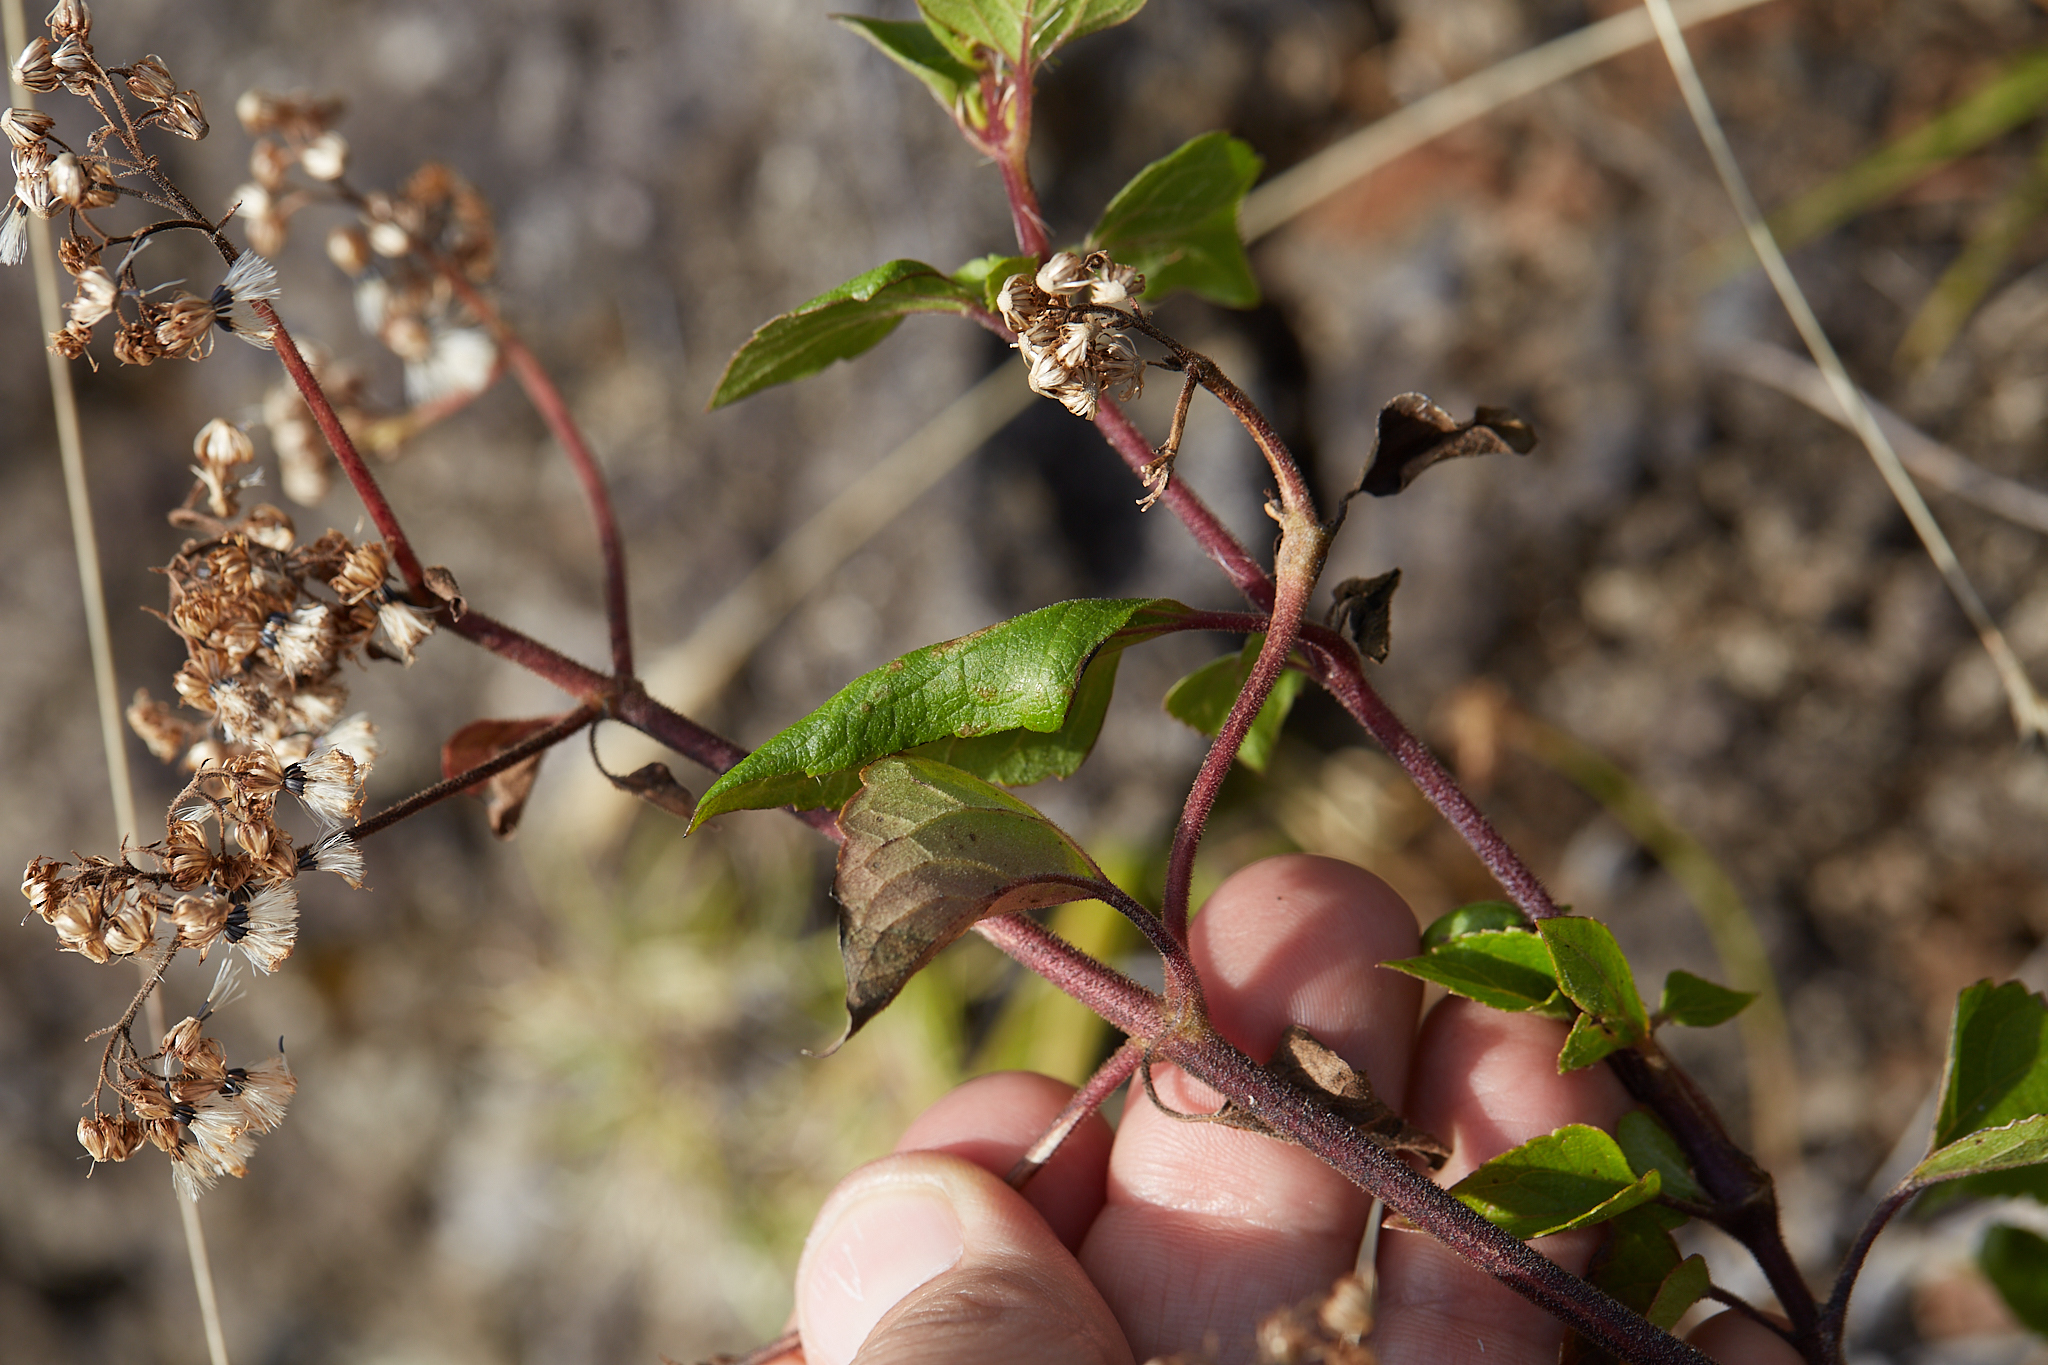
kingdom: Plantae
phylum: Tracheophyta
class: Magnoliopsida
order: Asterales
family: Asteraceae
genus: Ageratina
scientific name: Ageratina adenophora
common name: Sticky snakeroot
